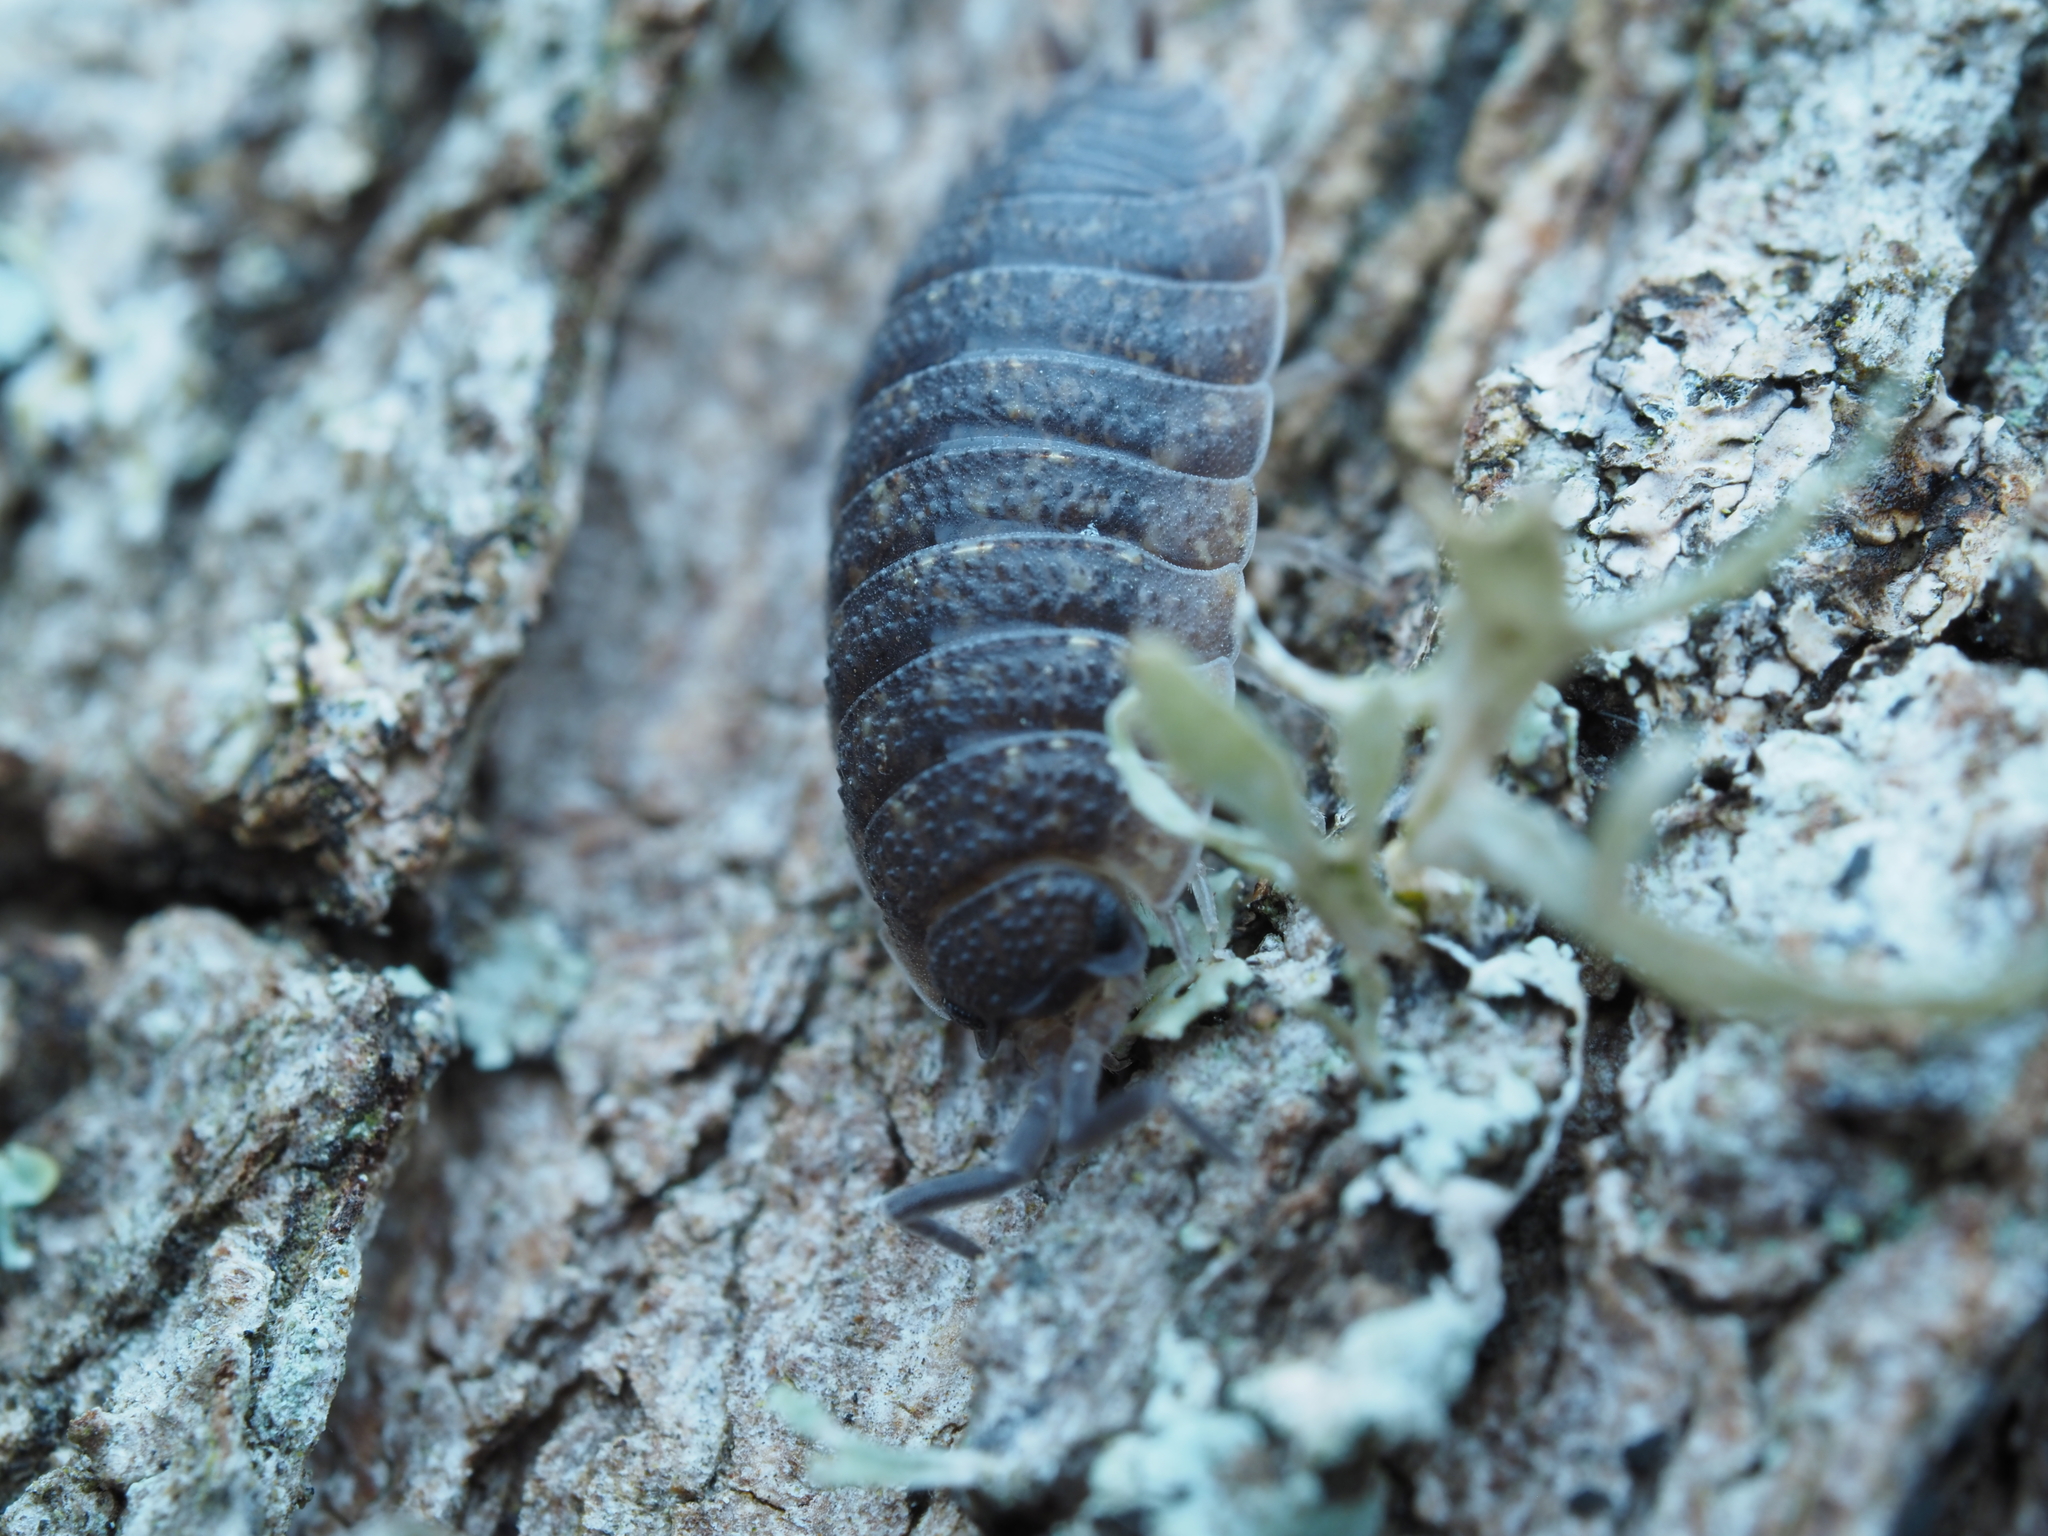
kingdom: Animalia
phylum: Arthropoda
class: Malacostraca
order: Isopoda
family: Porcellionidae
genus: Porcellio
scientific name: Porcellio scaber
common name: Common rough woodlouse
